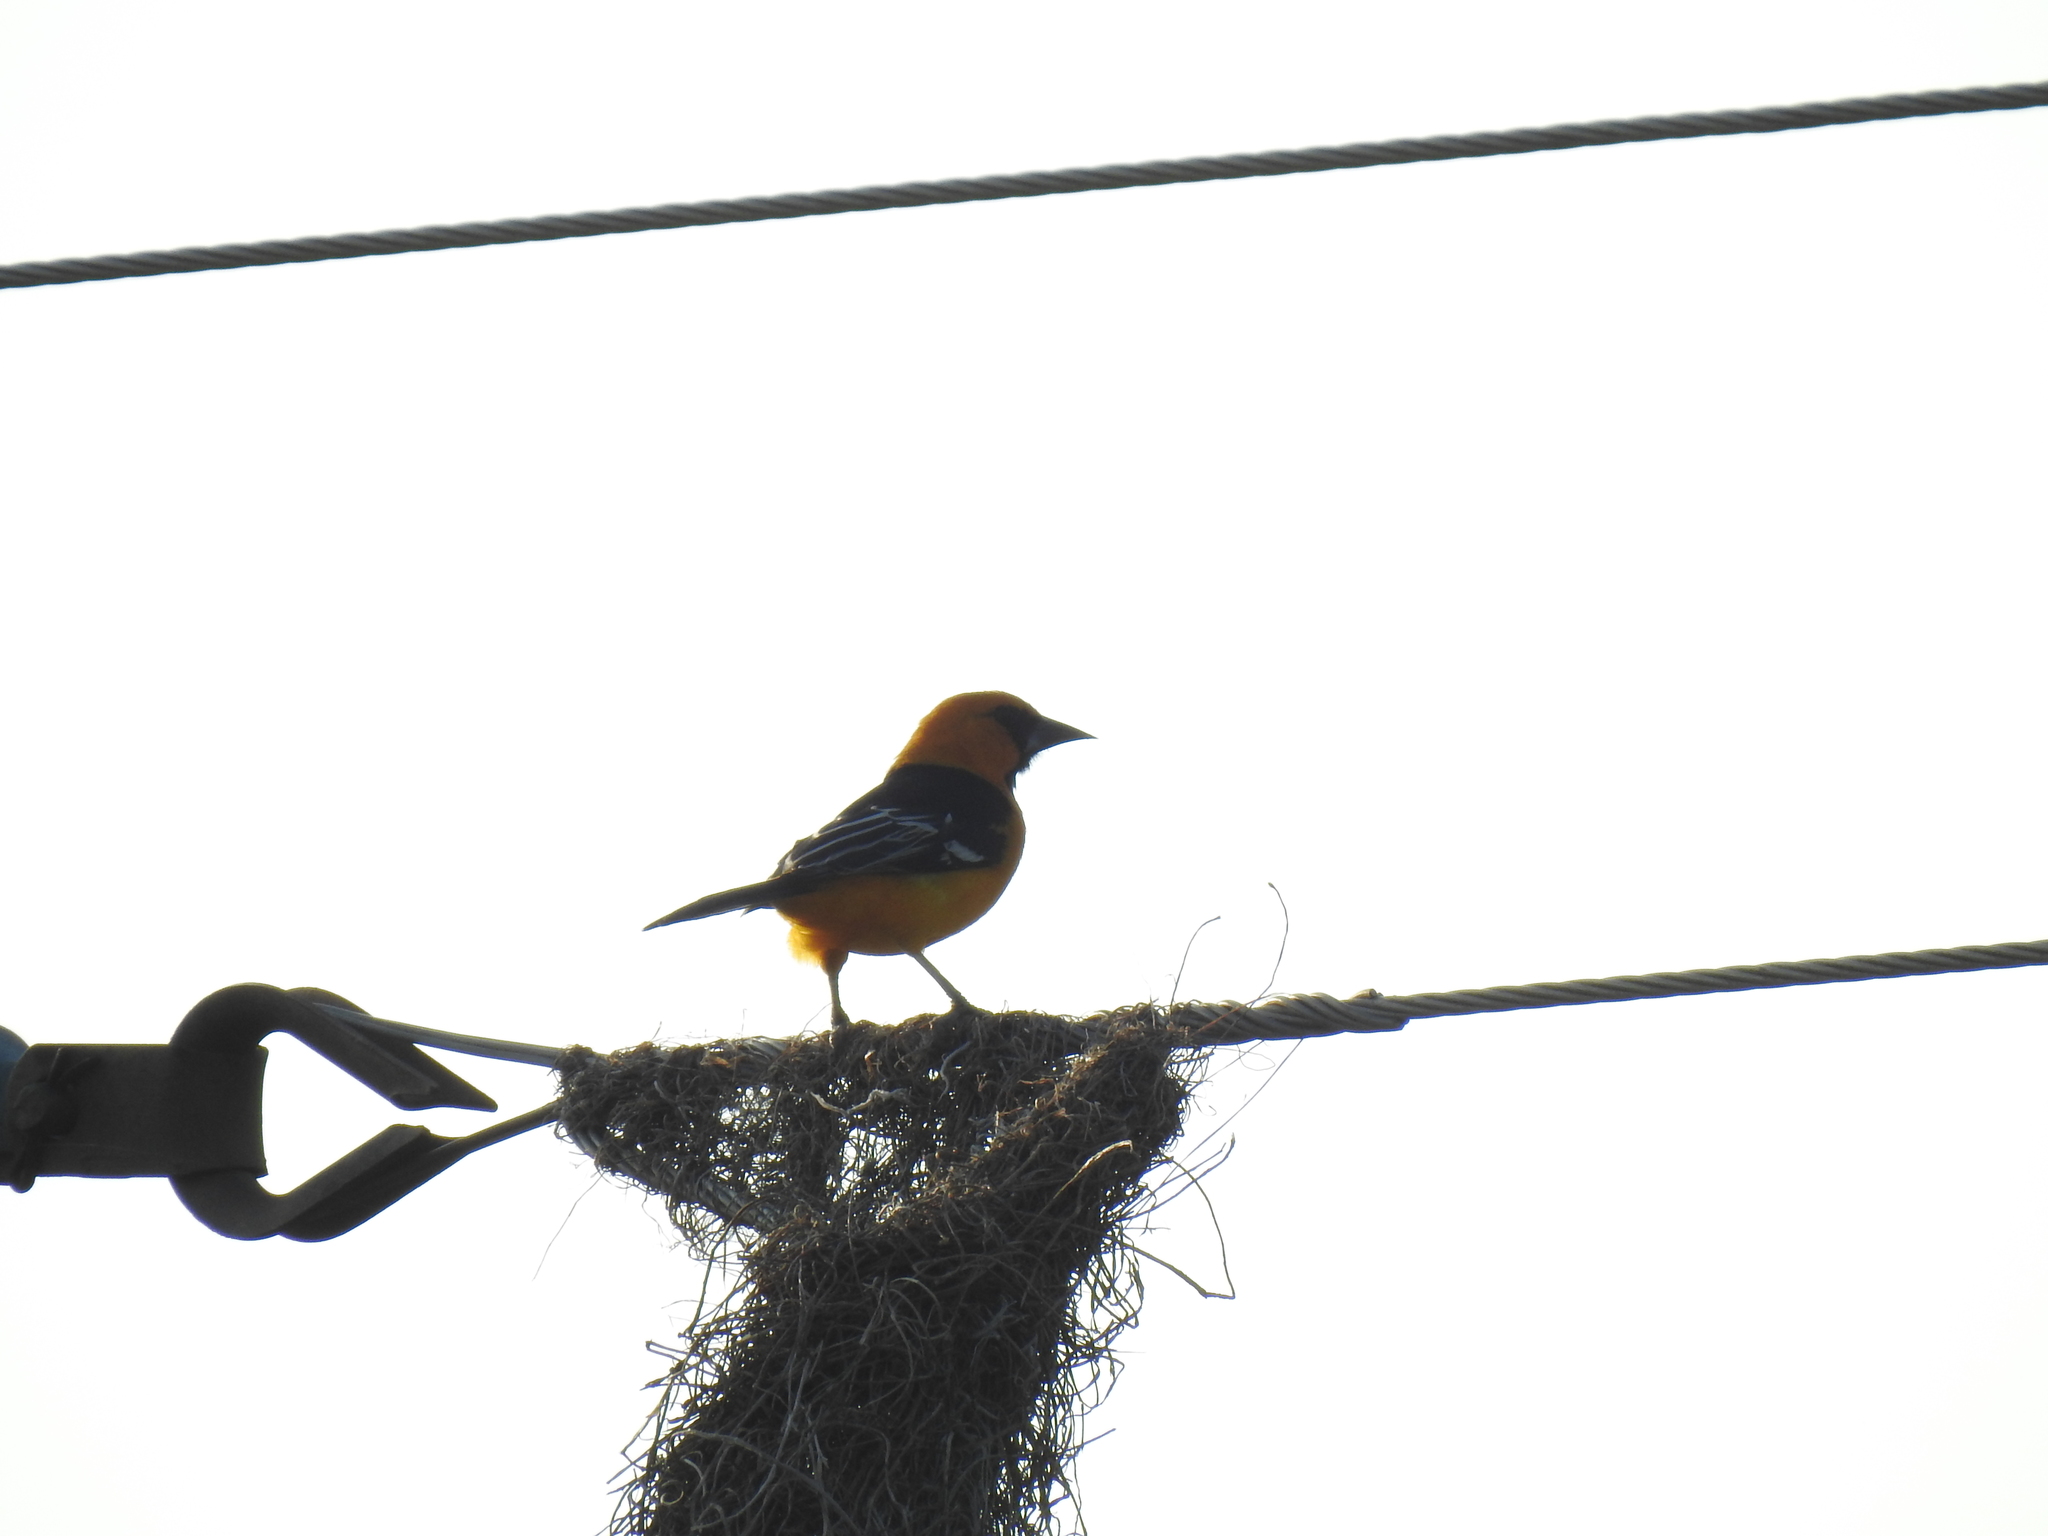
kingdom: Animalia
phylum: Chordata
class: Aves
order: Passeriformes
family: Icteridae
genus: Icterus
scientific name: Icterus gularis
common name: Altamira oriole
